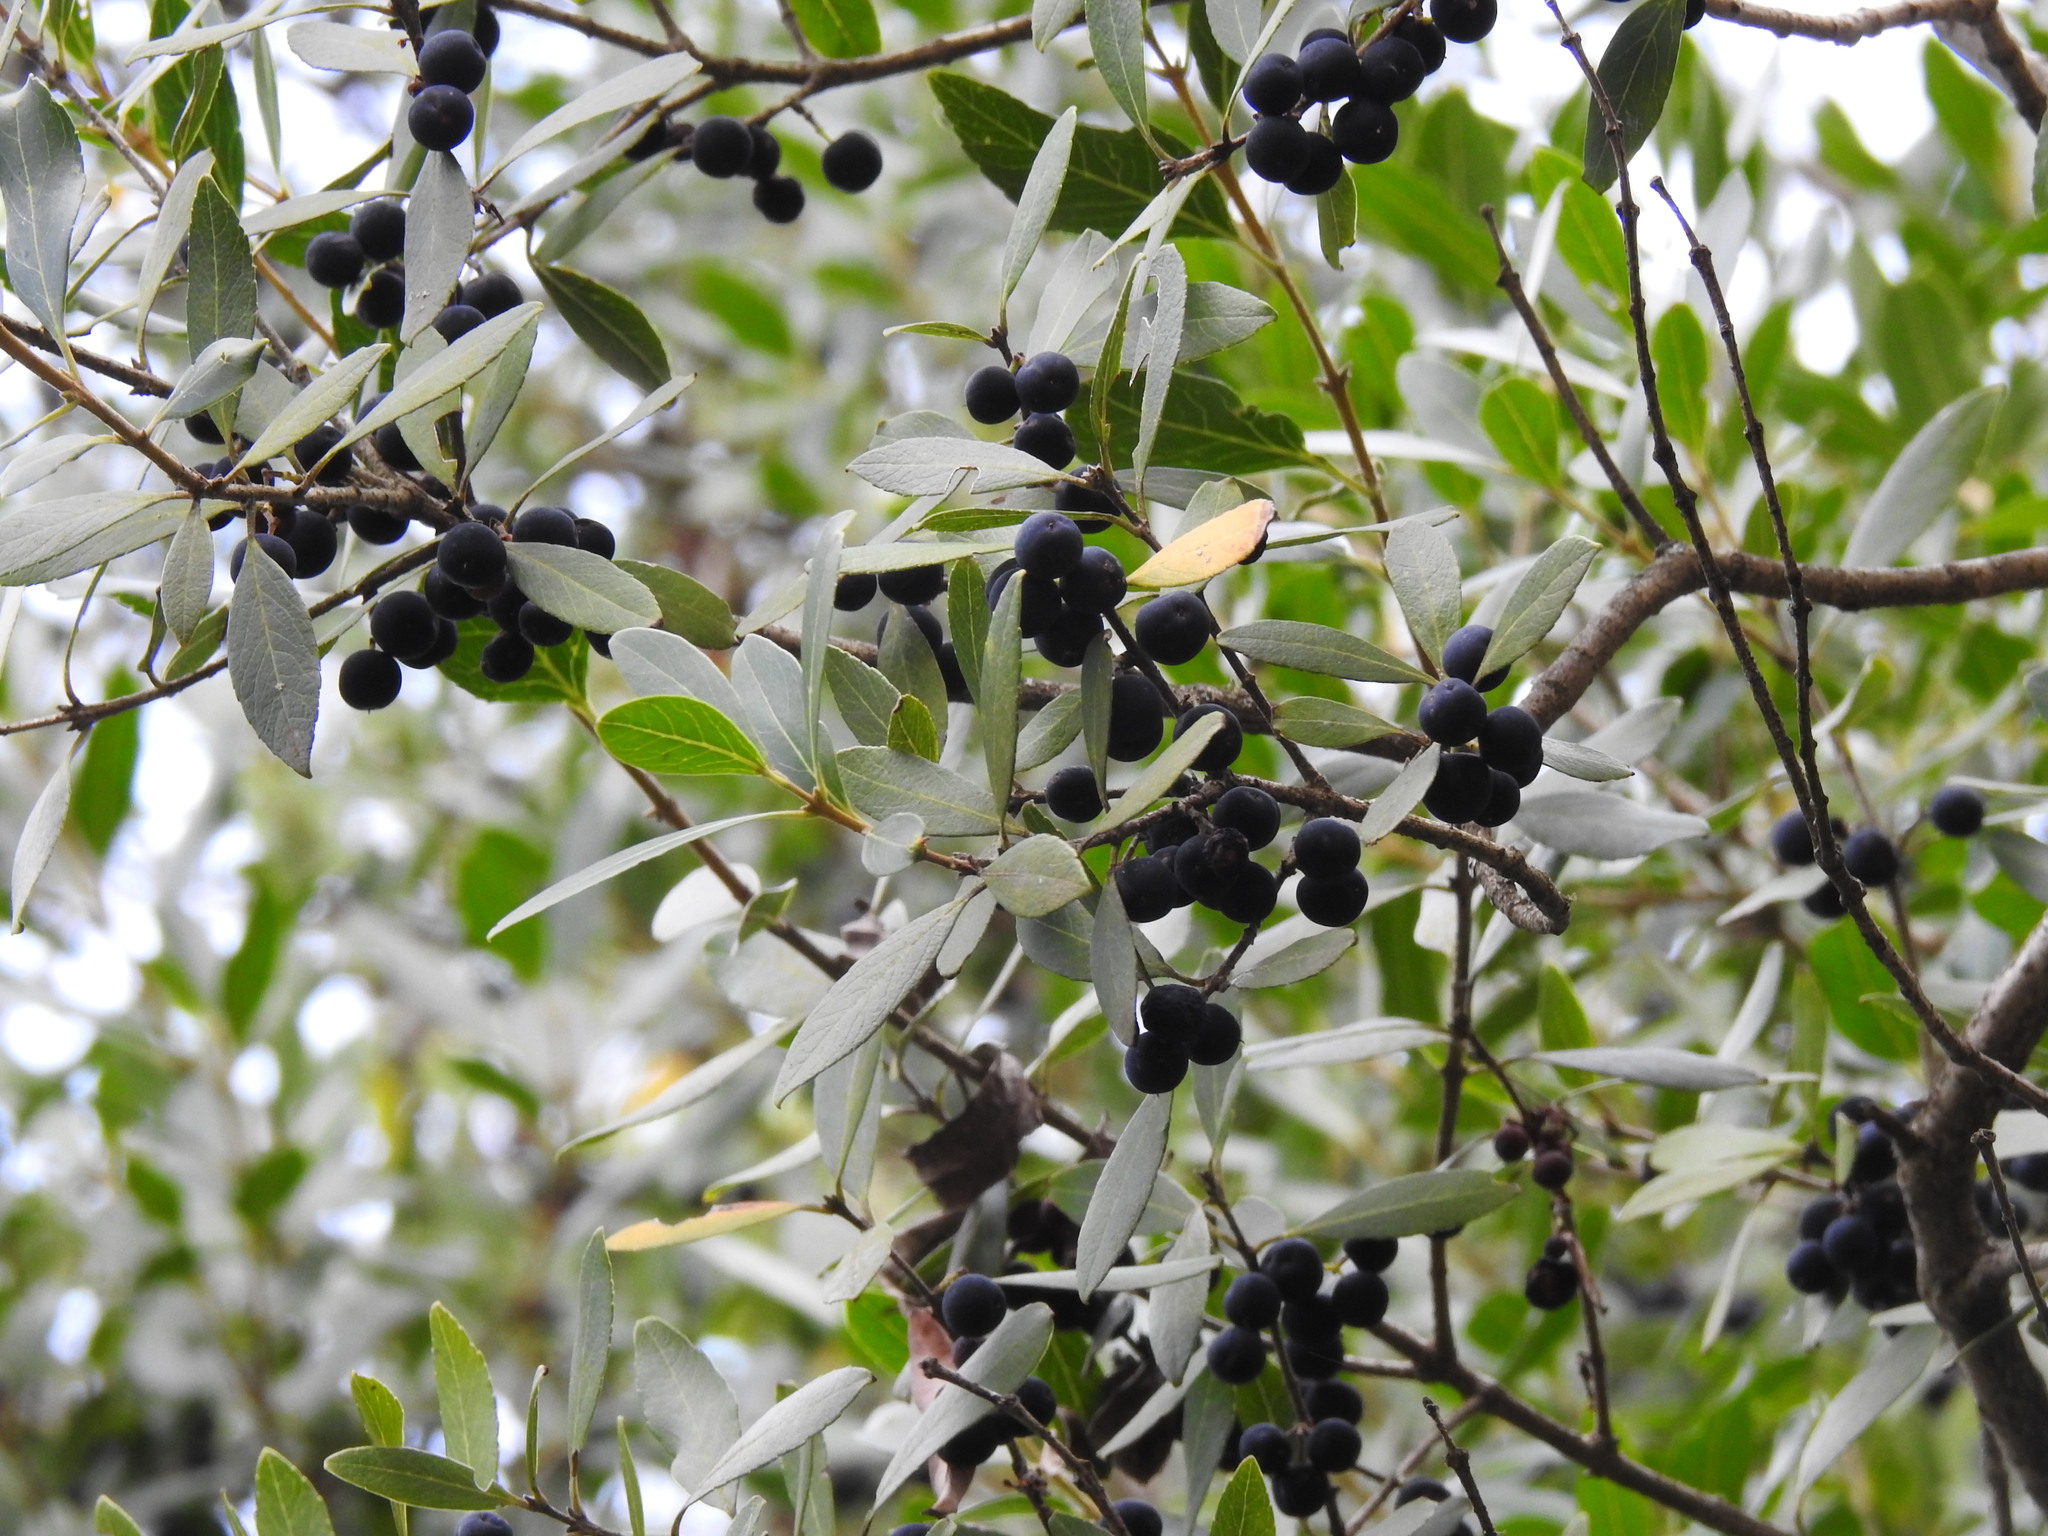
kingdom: Plantae
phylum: Tracheophyta
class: Magnoliopsida
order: Lamiales
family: Oleaceae
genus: Phillyrea
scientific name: Phillyrea latifolia
